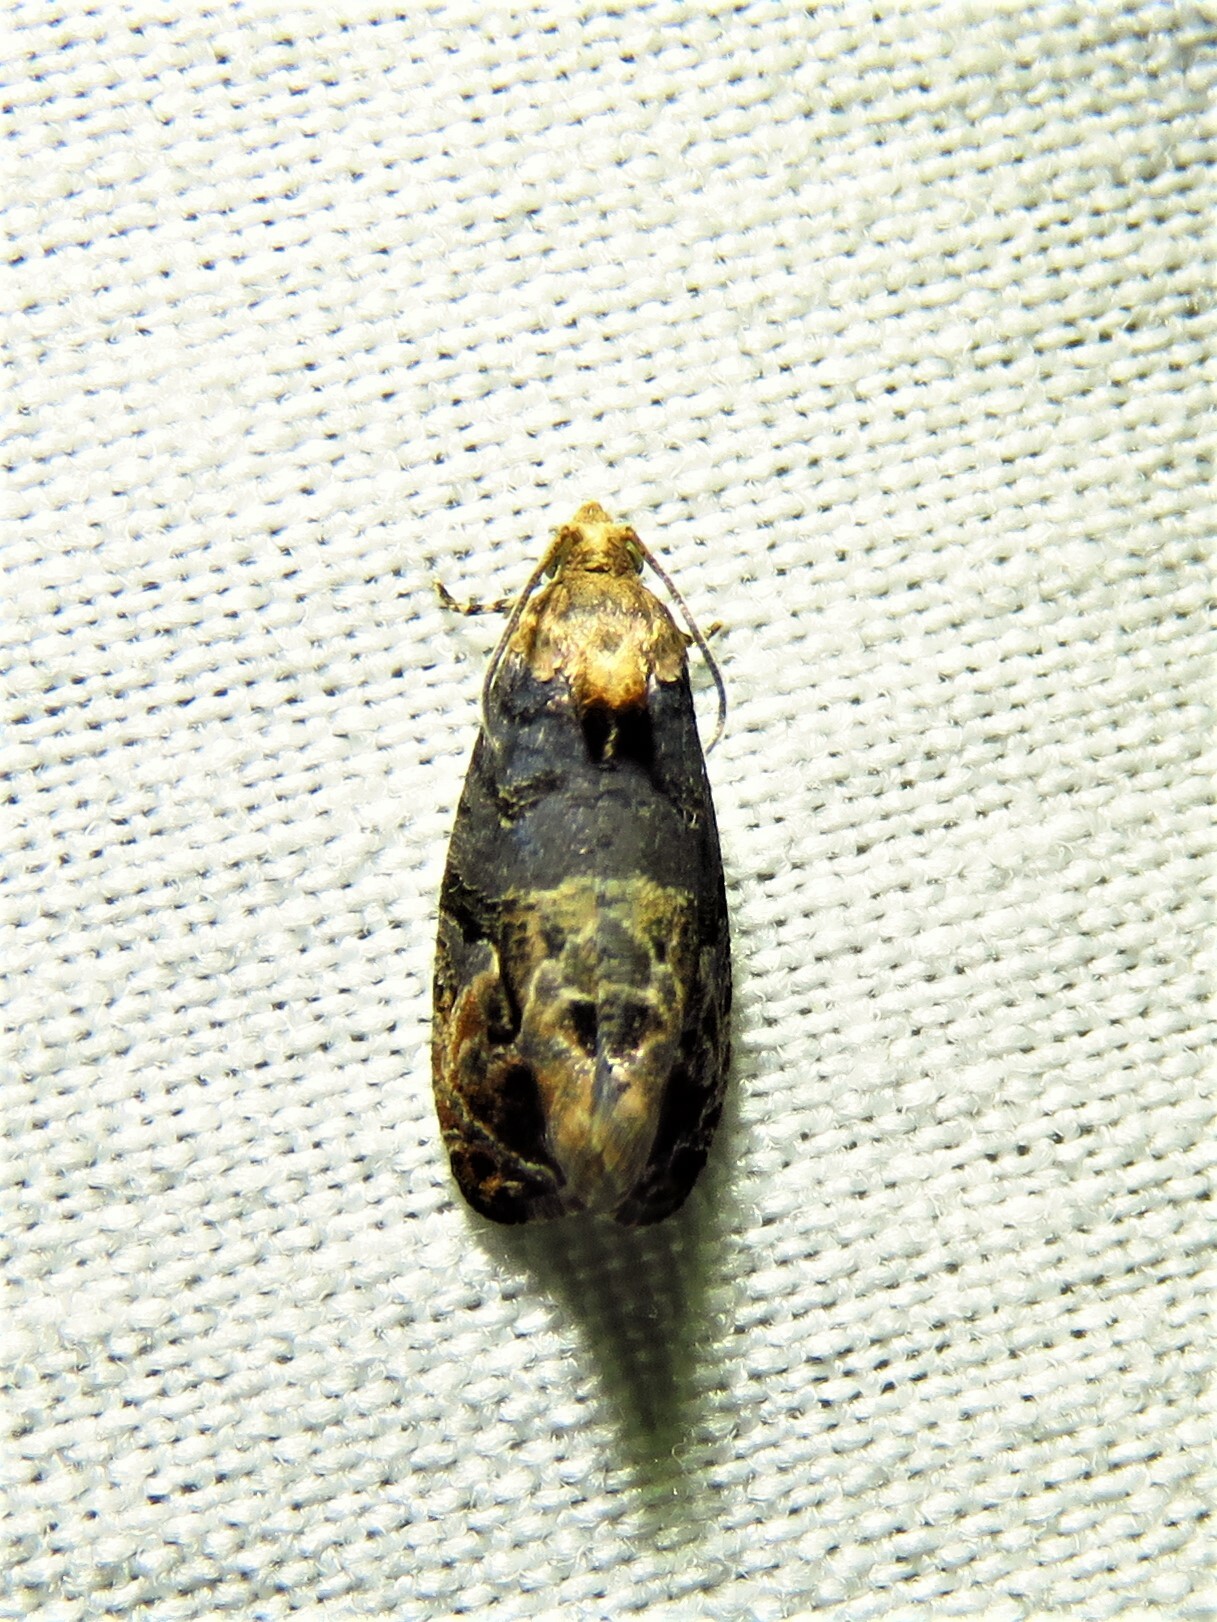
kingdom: Animalia
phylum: Arthropoda
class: Insecta
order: Lepidoptera
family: Tortricidae
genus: Paralobesia
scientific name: Paralobesia viteana
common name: Grape berry moth
